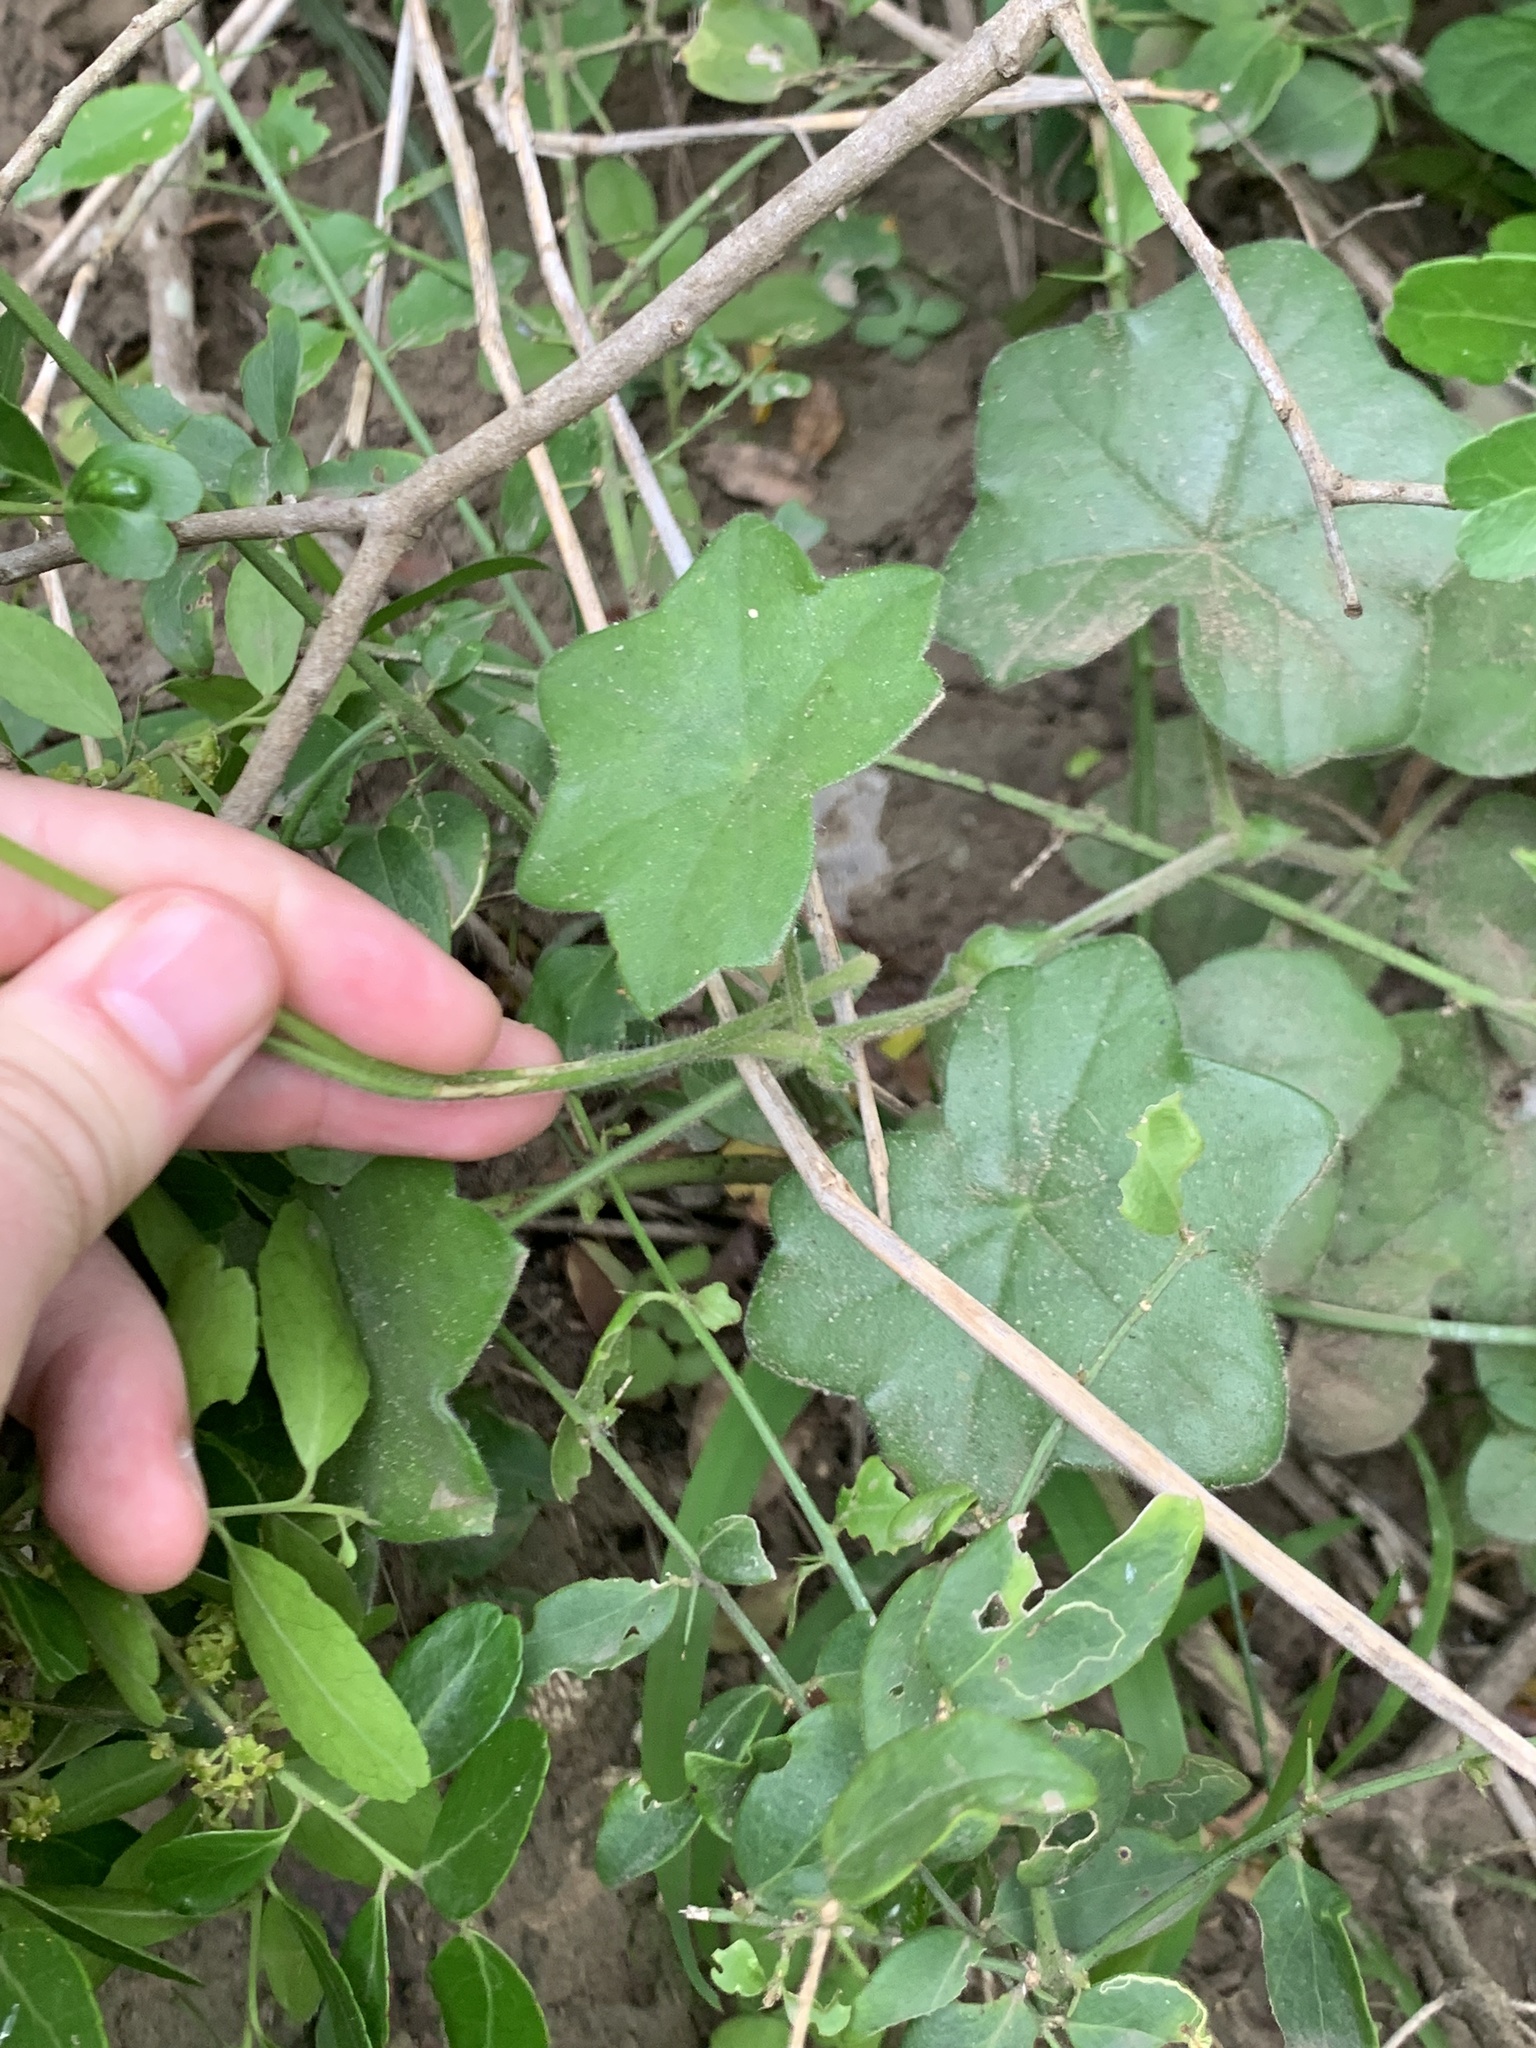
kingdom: Plantae
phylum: Tracheophyta
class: Magnoliopsida
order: Geraniales
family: Geraniaceae
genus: Pelargonium
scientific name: Pelargonium peltatum
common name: Ivyleaf geranium
